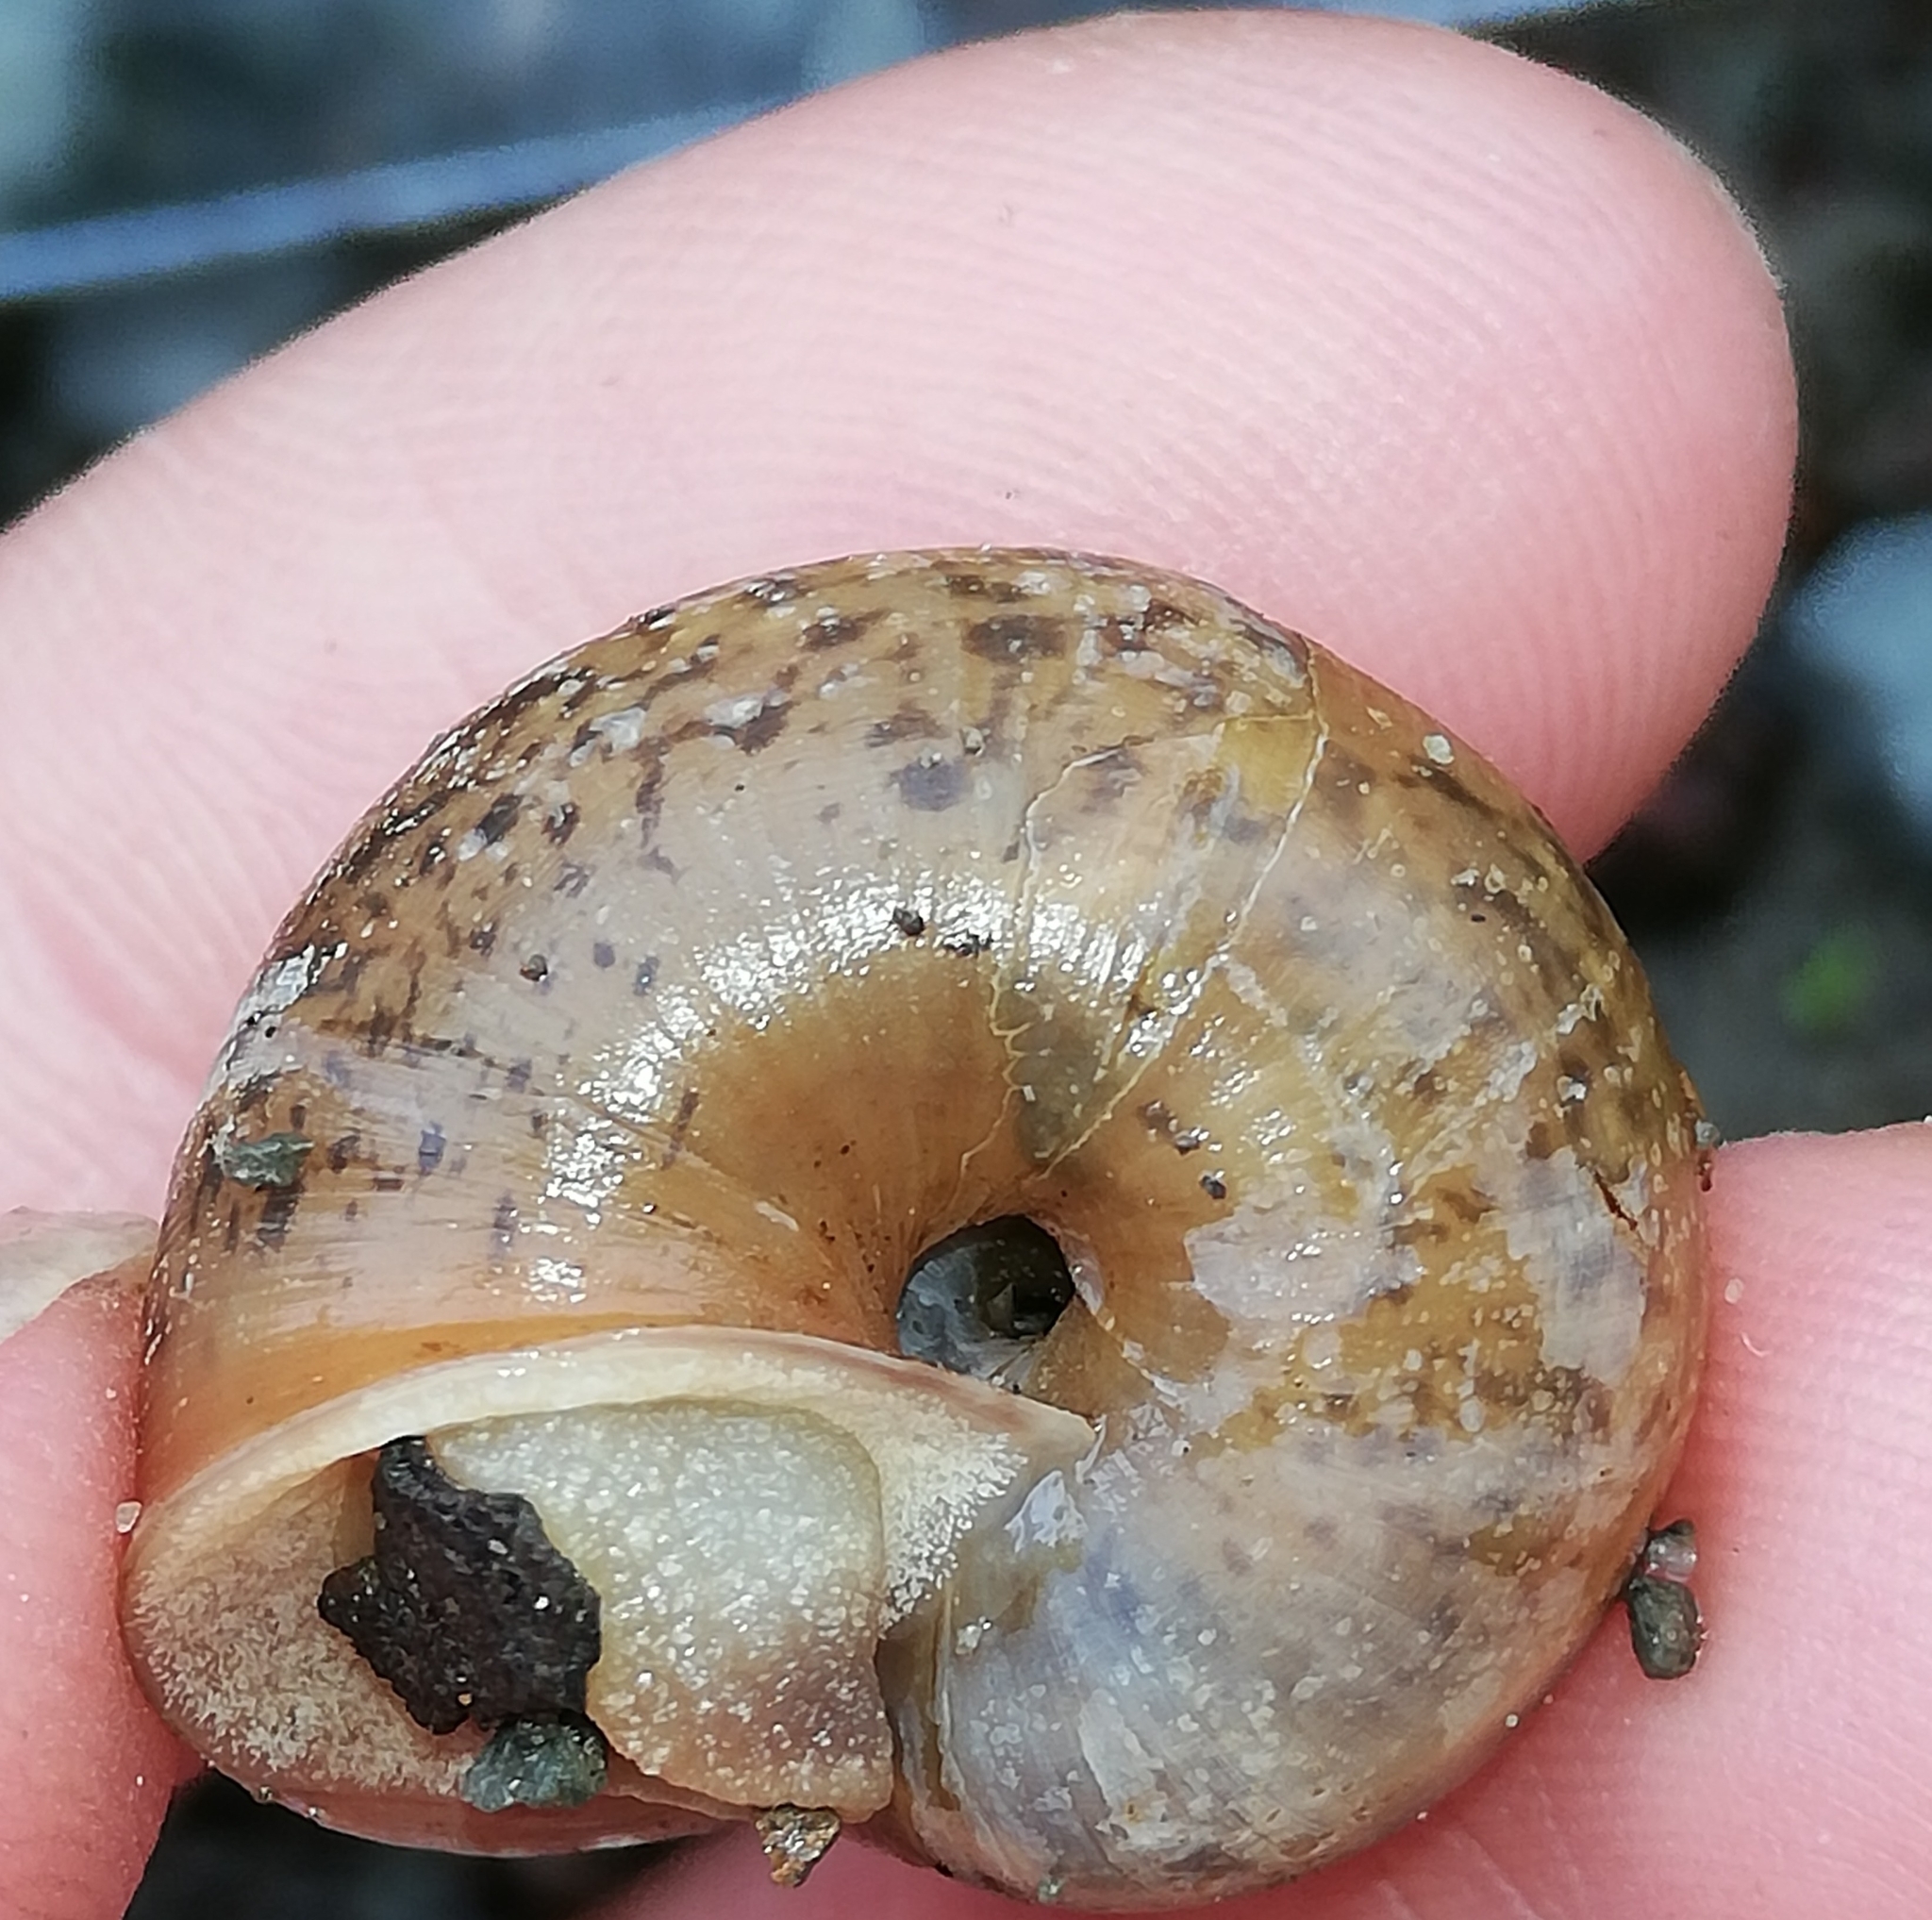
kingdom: Animalia
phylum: Mollusca
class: Gastropoda
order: Stylommatophora
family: Camaenidae
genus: Fruticicola
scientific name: Fruticicola fruticum
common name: Bush snail
